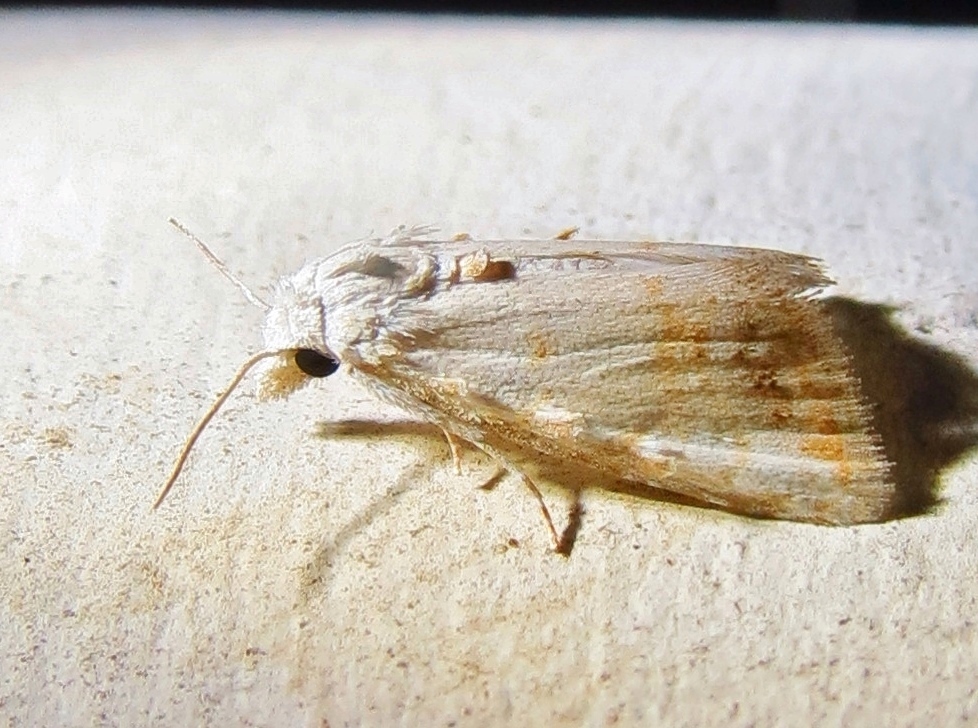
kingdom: Animalia
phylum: Arthropoda
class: Insecta
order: Lepidoptera
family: Nolidae
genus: Nola
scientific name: Nola cereella
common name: Sorghum webworm moth
